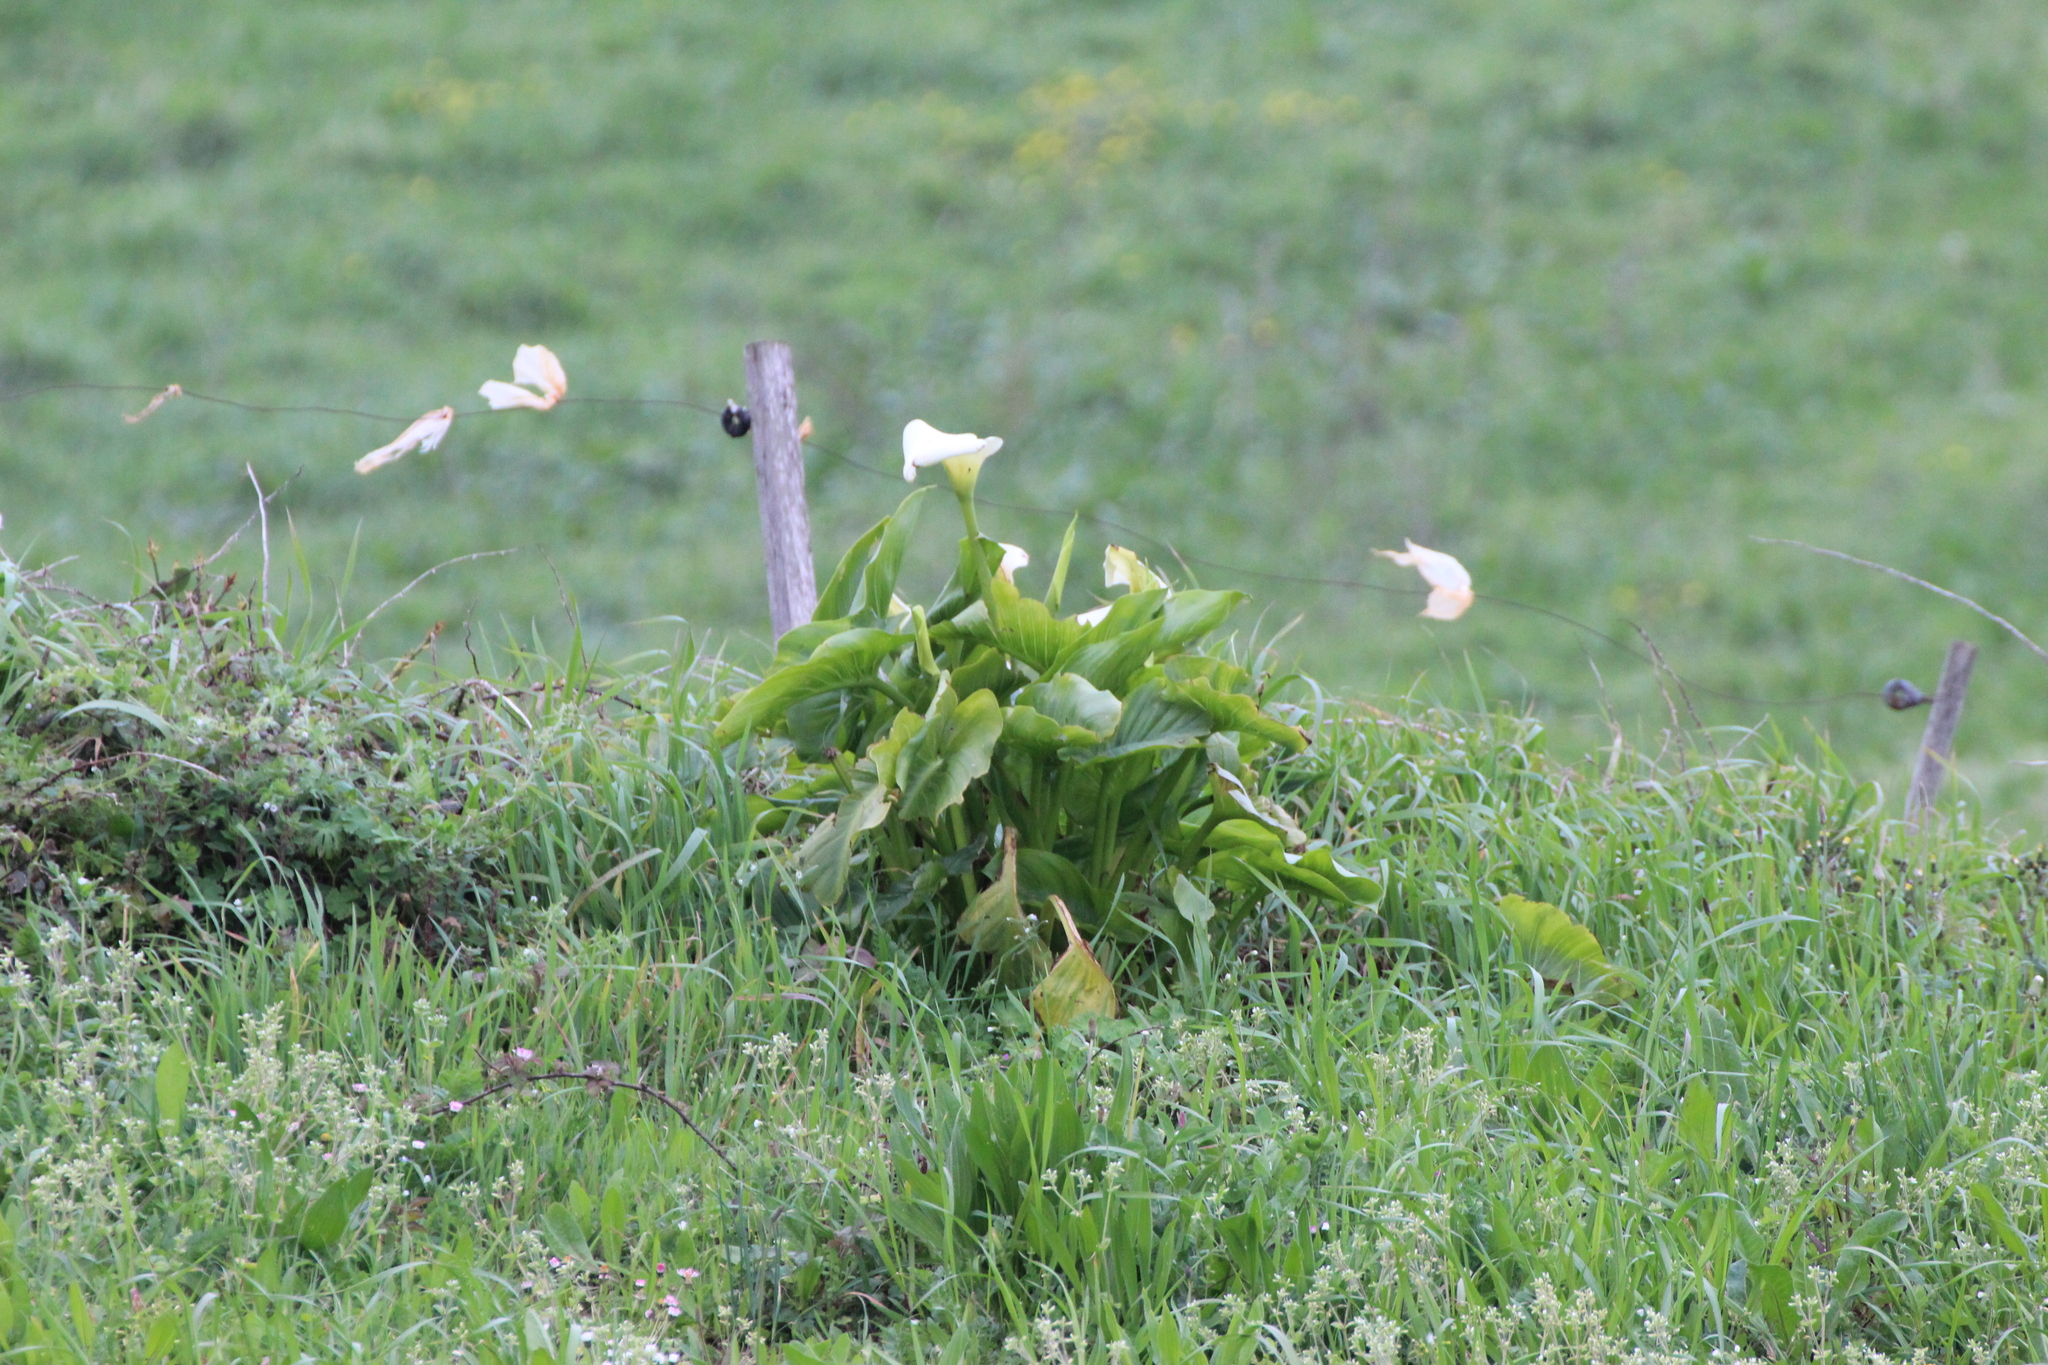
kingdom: Plantae
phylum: Tracheophyta
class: Liliopsida
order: Alismatales
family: Araceae
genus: Zantedeschia
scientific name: Zantedeschia aethiopica
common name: Altar-lily
